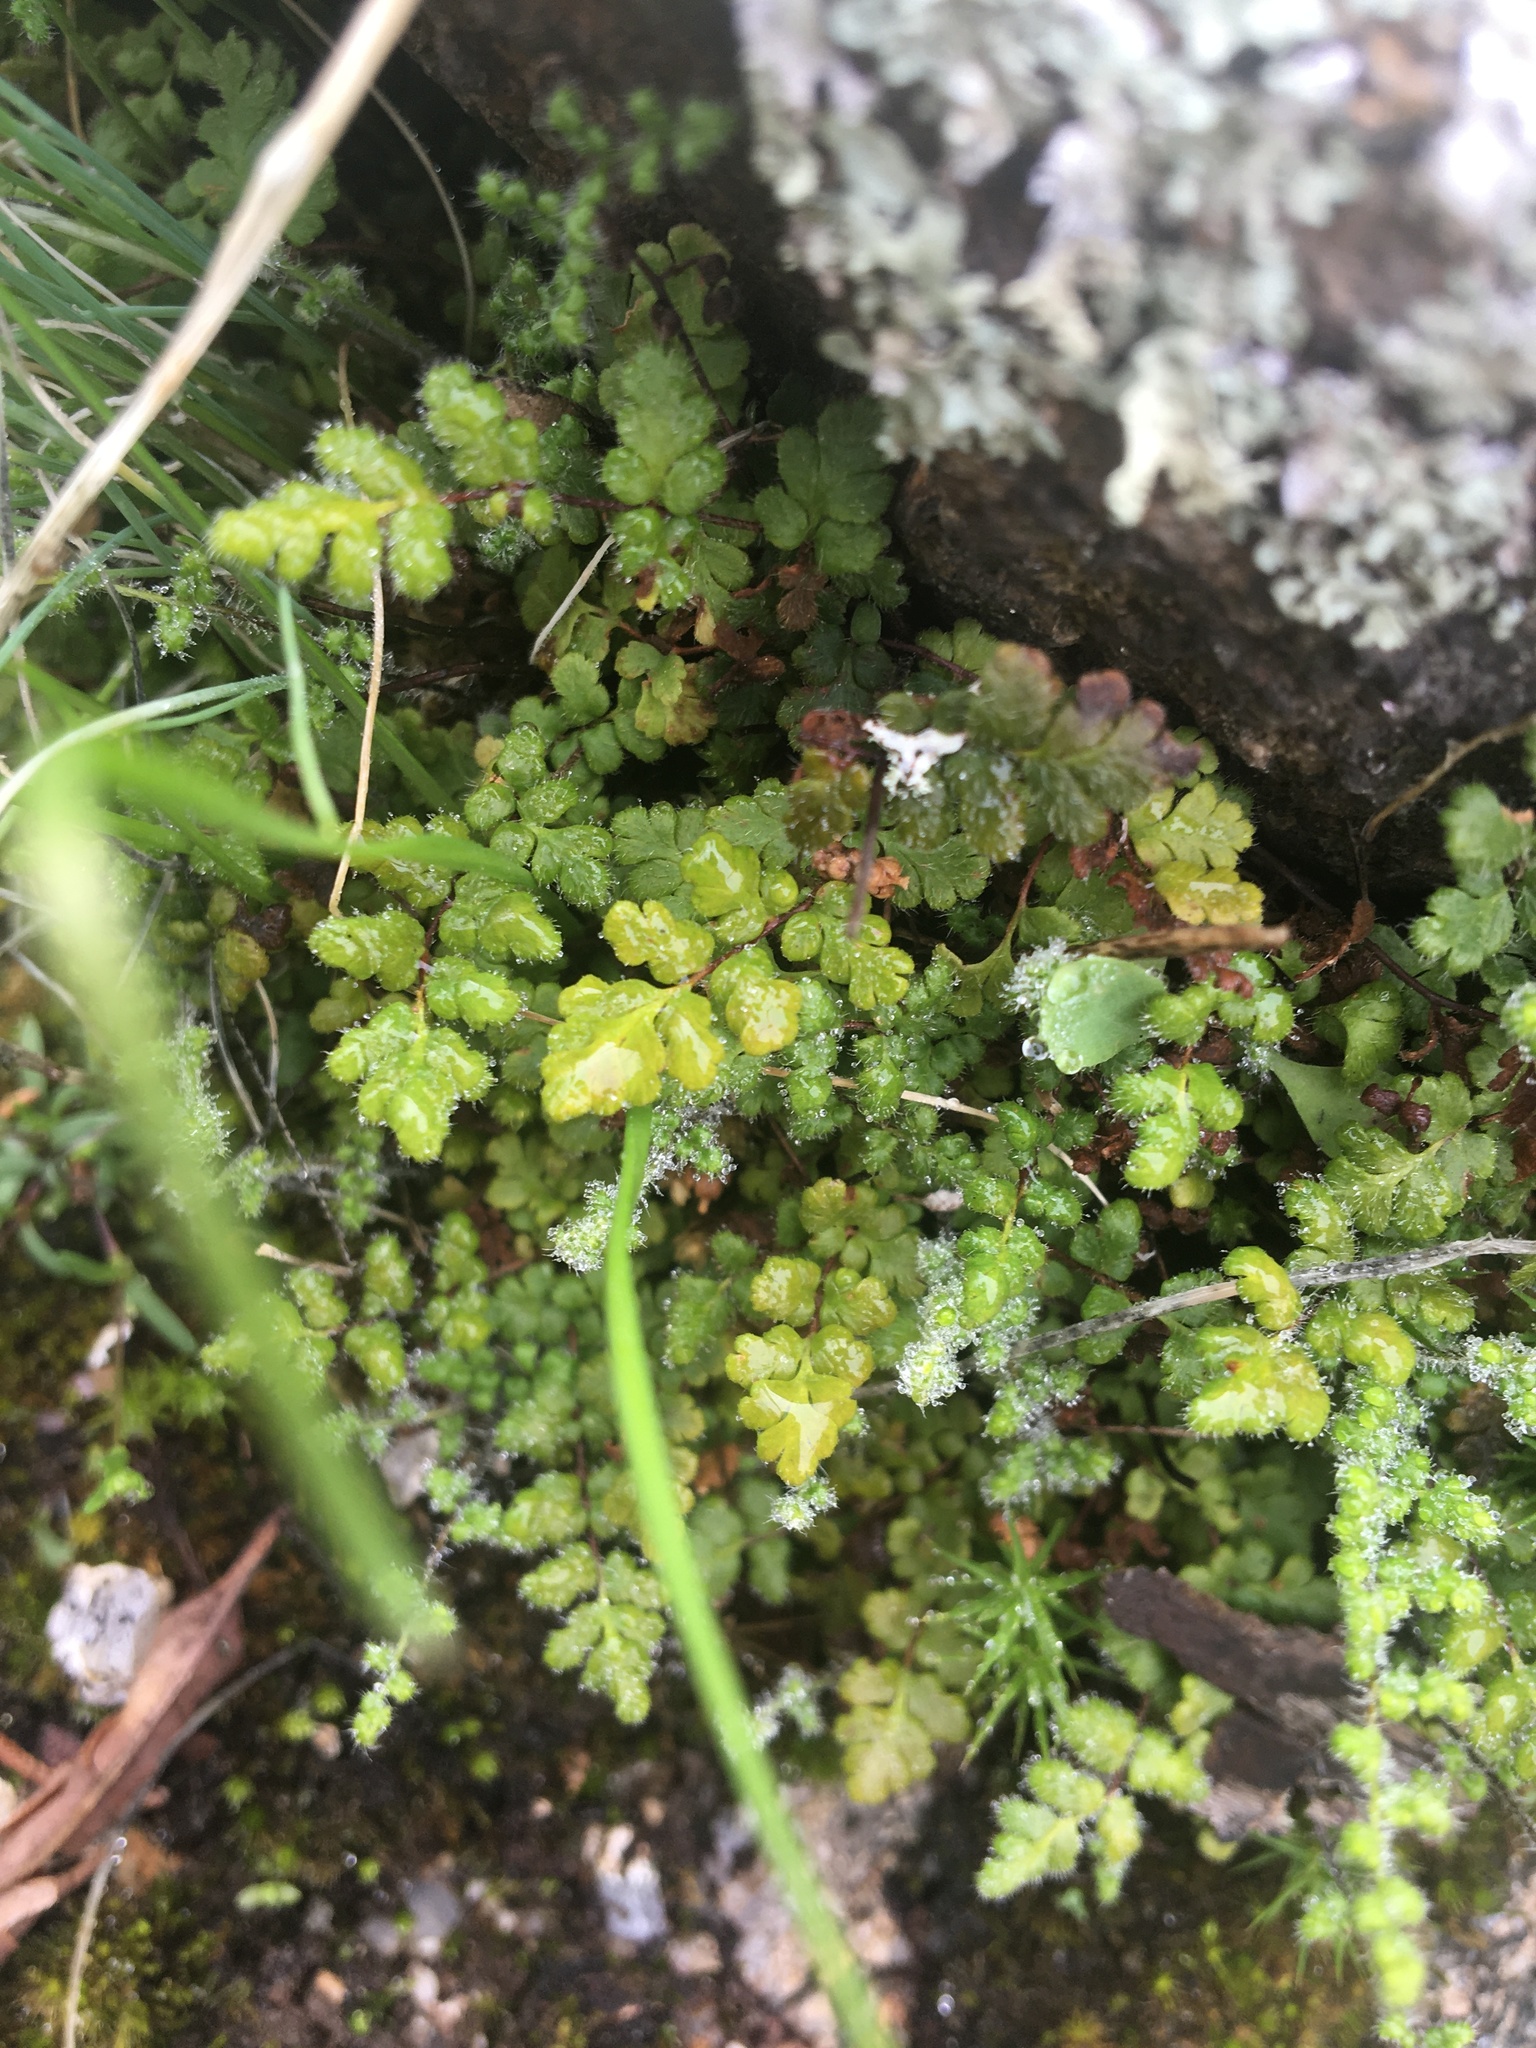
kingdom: Plantae
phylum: Tracheophyta
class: Polypodiopsida
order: Polypodiales
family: Pteridaceae
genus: Myriopteris
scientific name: Myriopteris lanosa
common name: Hairy lip fern
